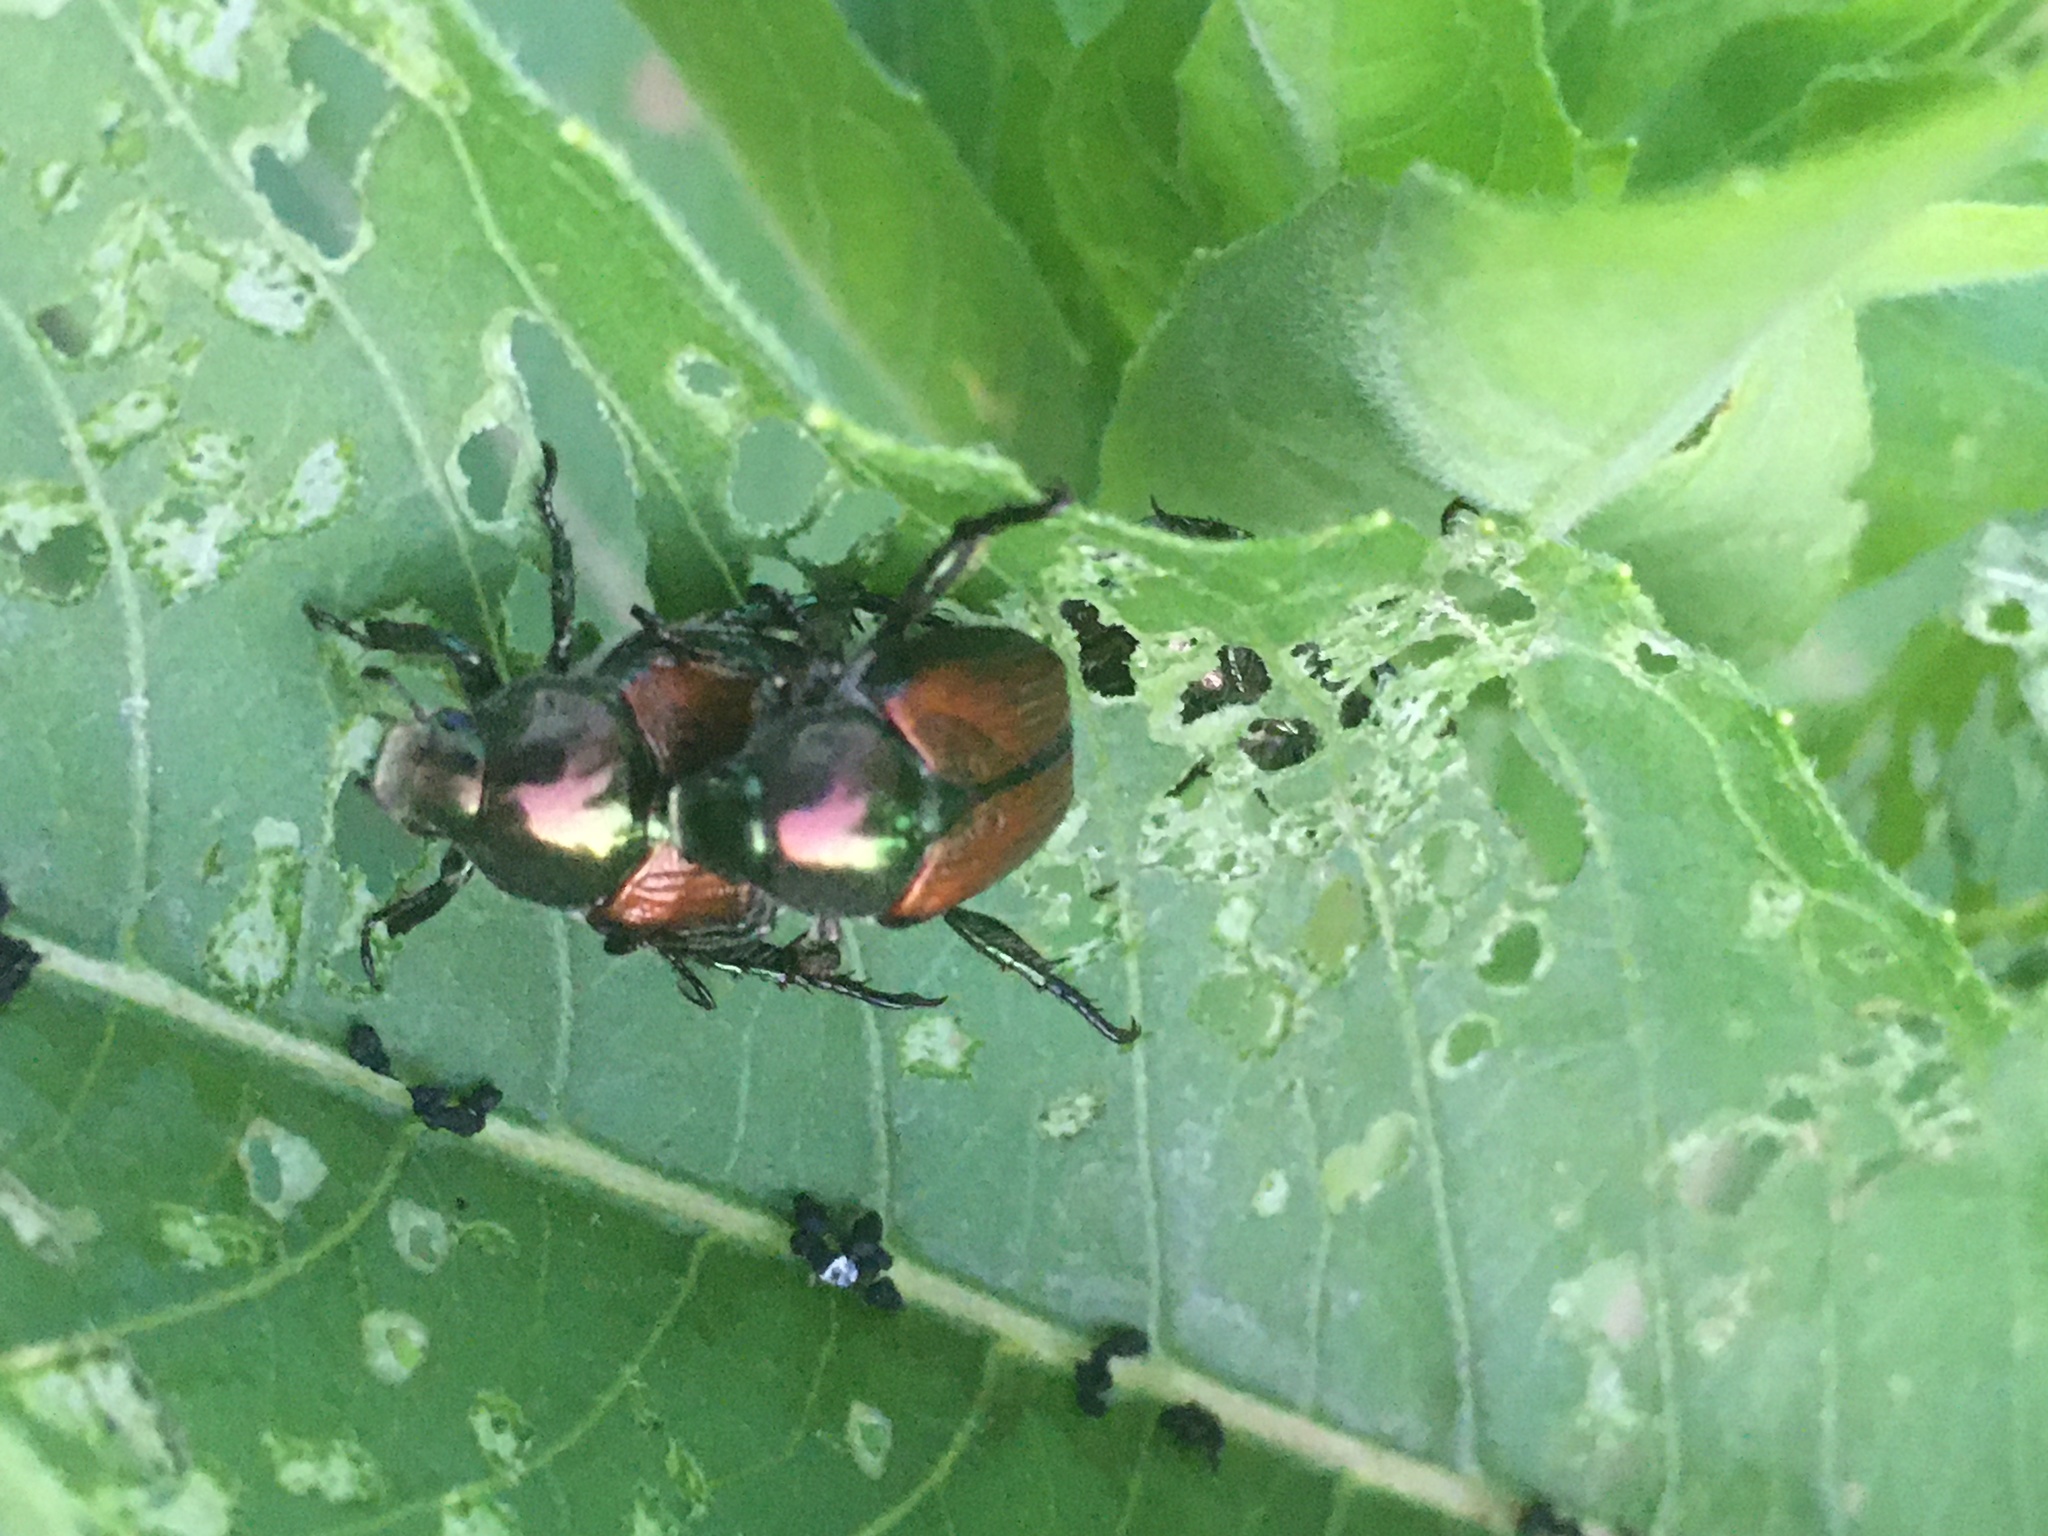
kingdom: Animalia
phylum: Arthropoda
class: Insecta
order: Coleoptera
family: Scarabaeidae
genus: Popillia
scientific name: Popillia japonica
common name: Japanese beetle
